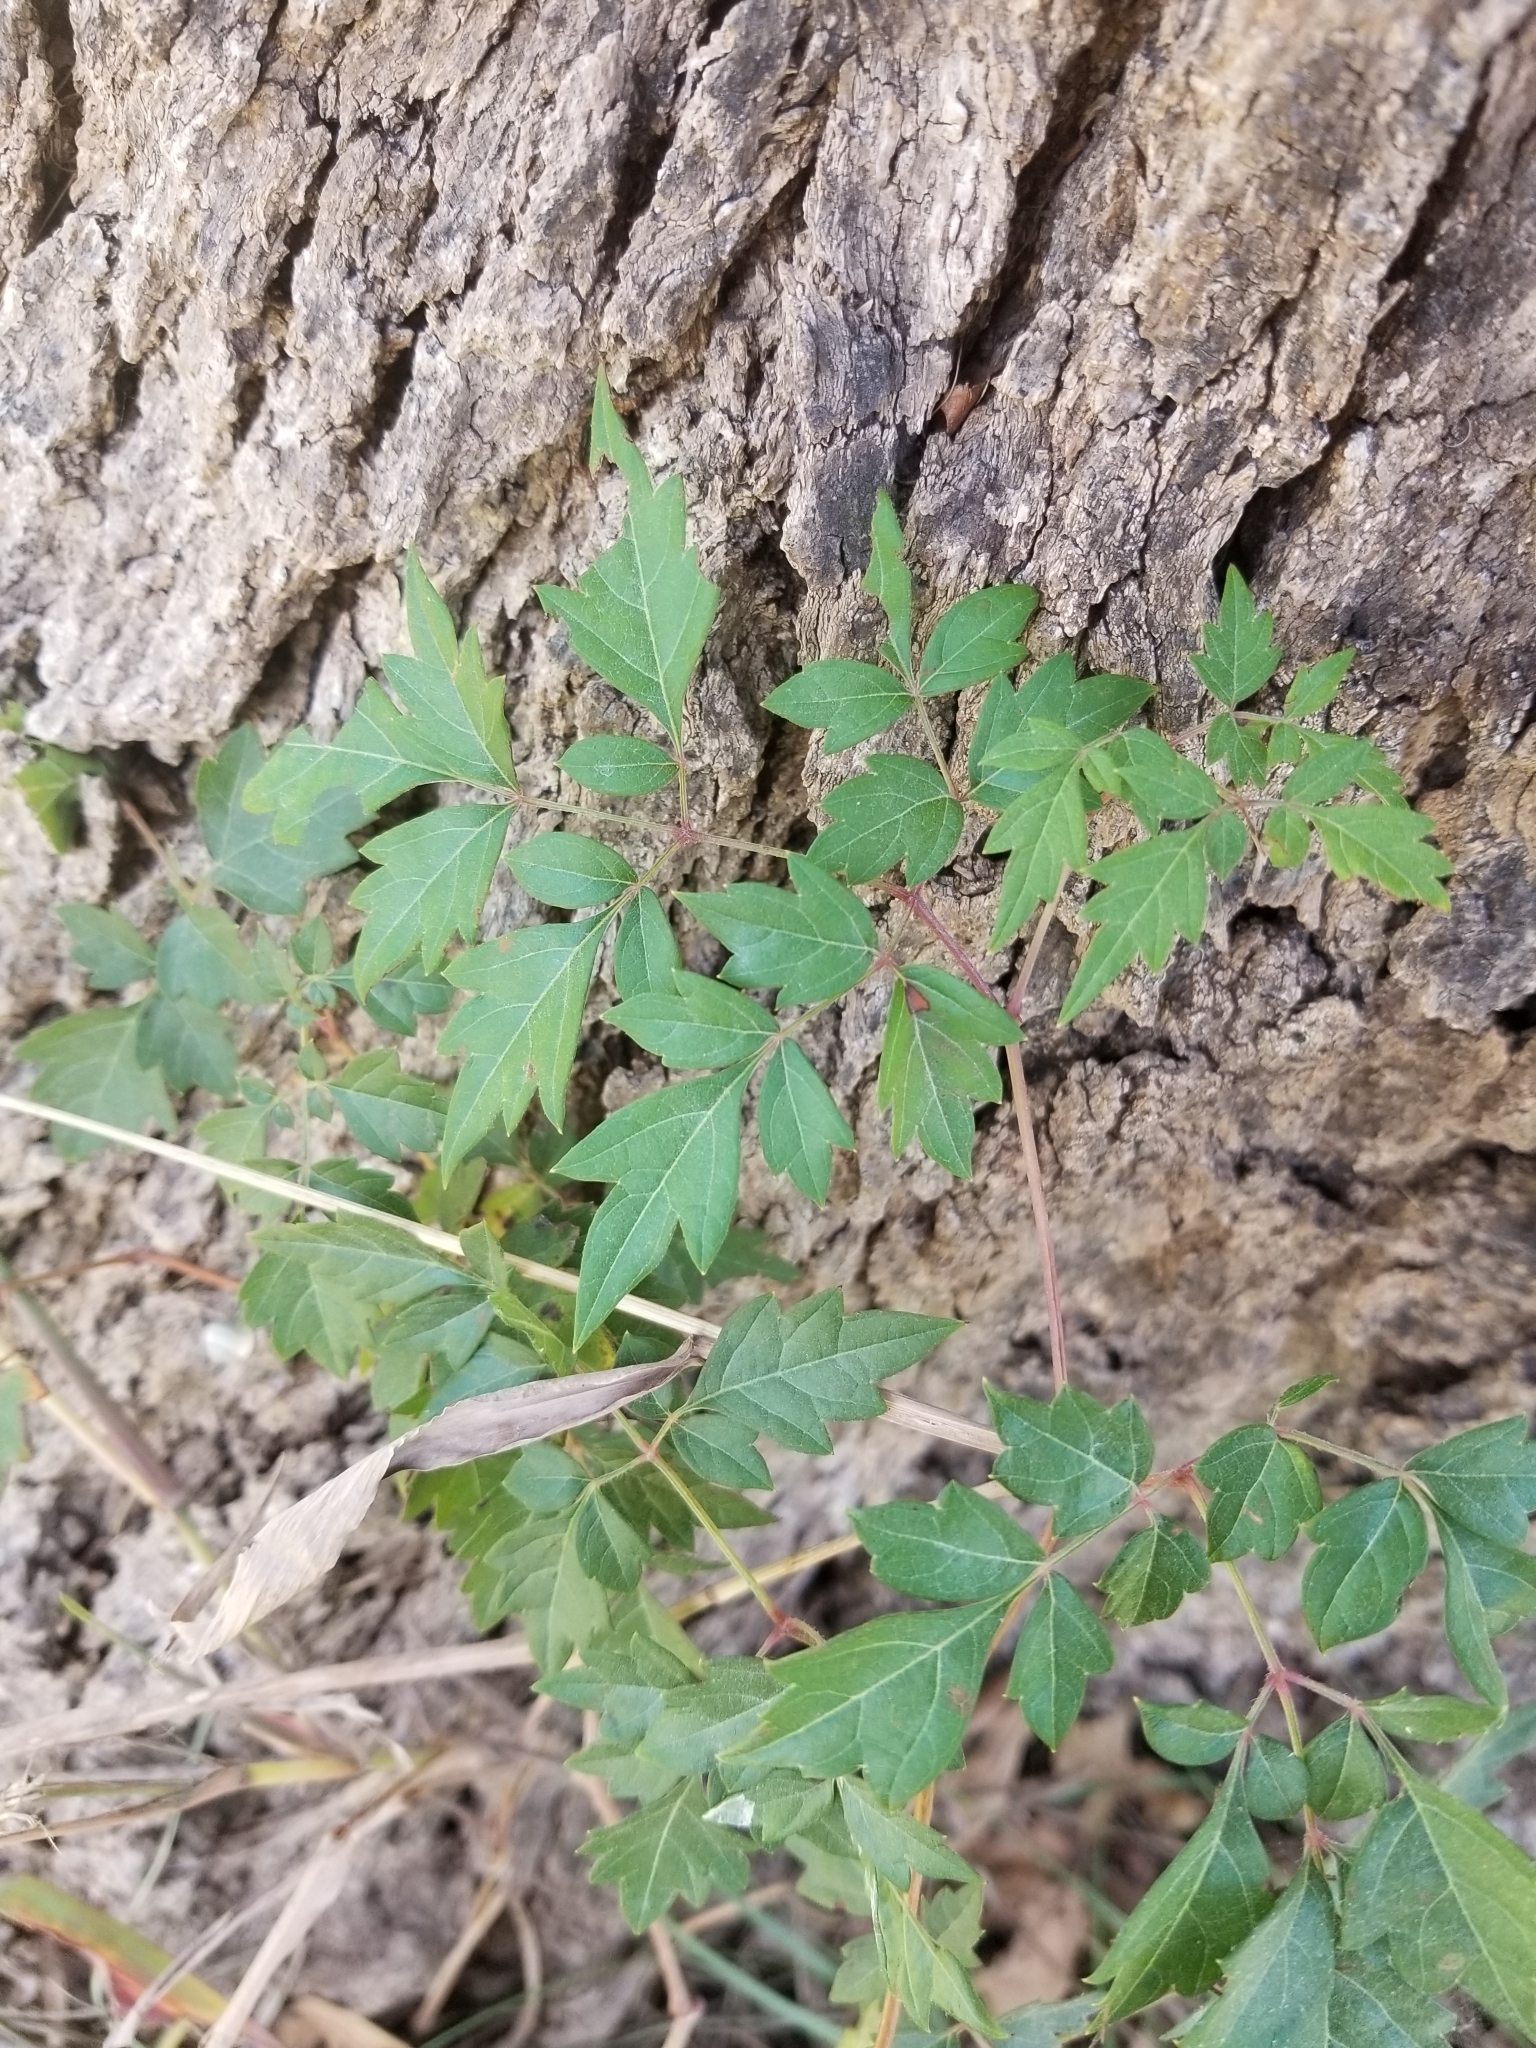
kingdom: Plantae
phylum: Tracheophyta
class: Magnoliopsida
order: Vitales
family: Vitaceae
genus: Nekemias
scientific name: Nekemias arborea
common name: Peppervine
